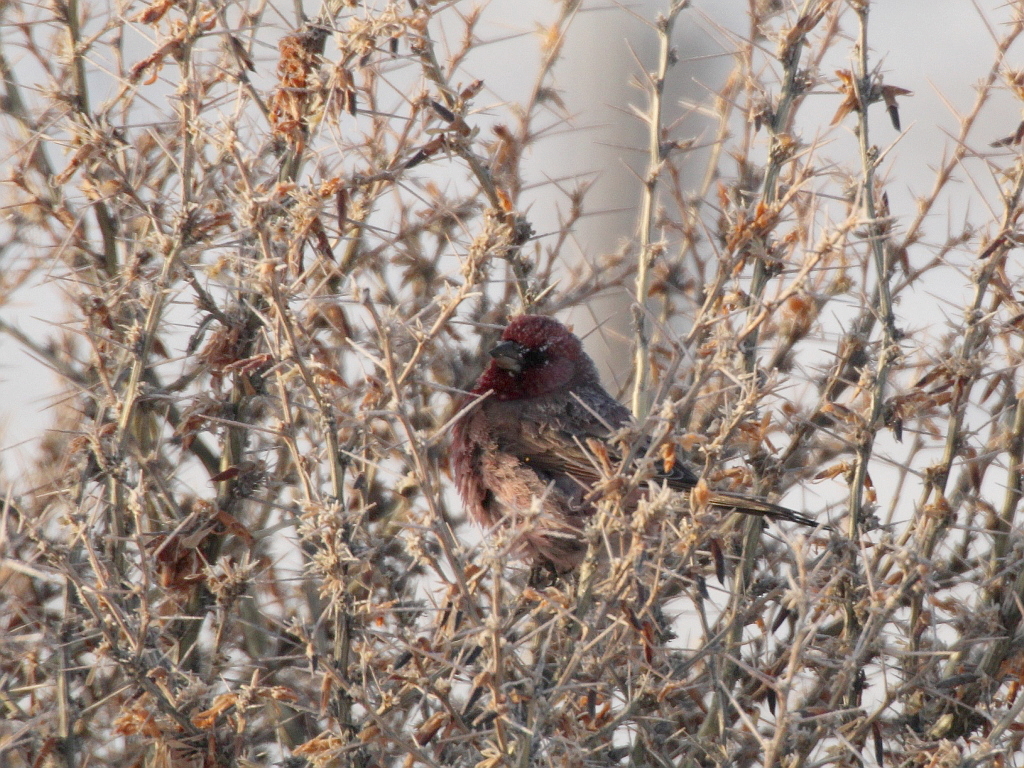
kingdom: Animalia
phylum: Chordata
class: Aves
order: Passeriformes
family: Fringillidae
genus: Carpodacus
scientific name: Carpodacus rubicilla
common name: Great rosefinch
